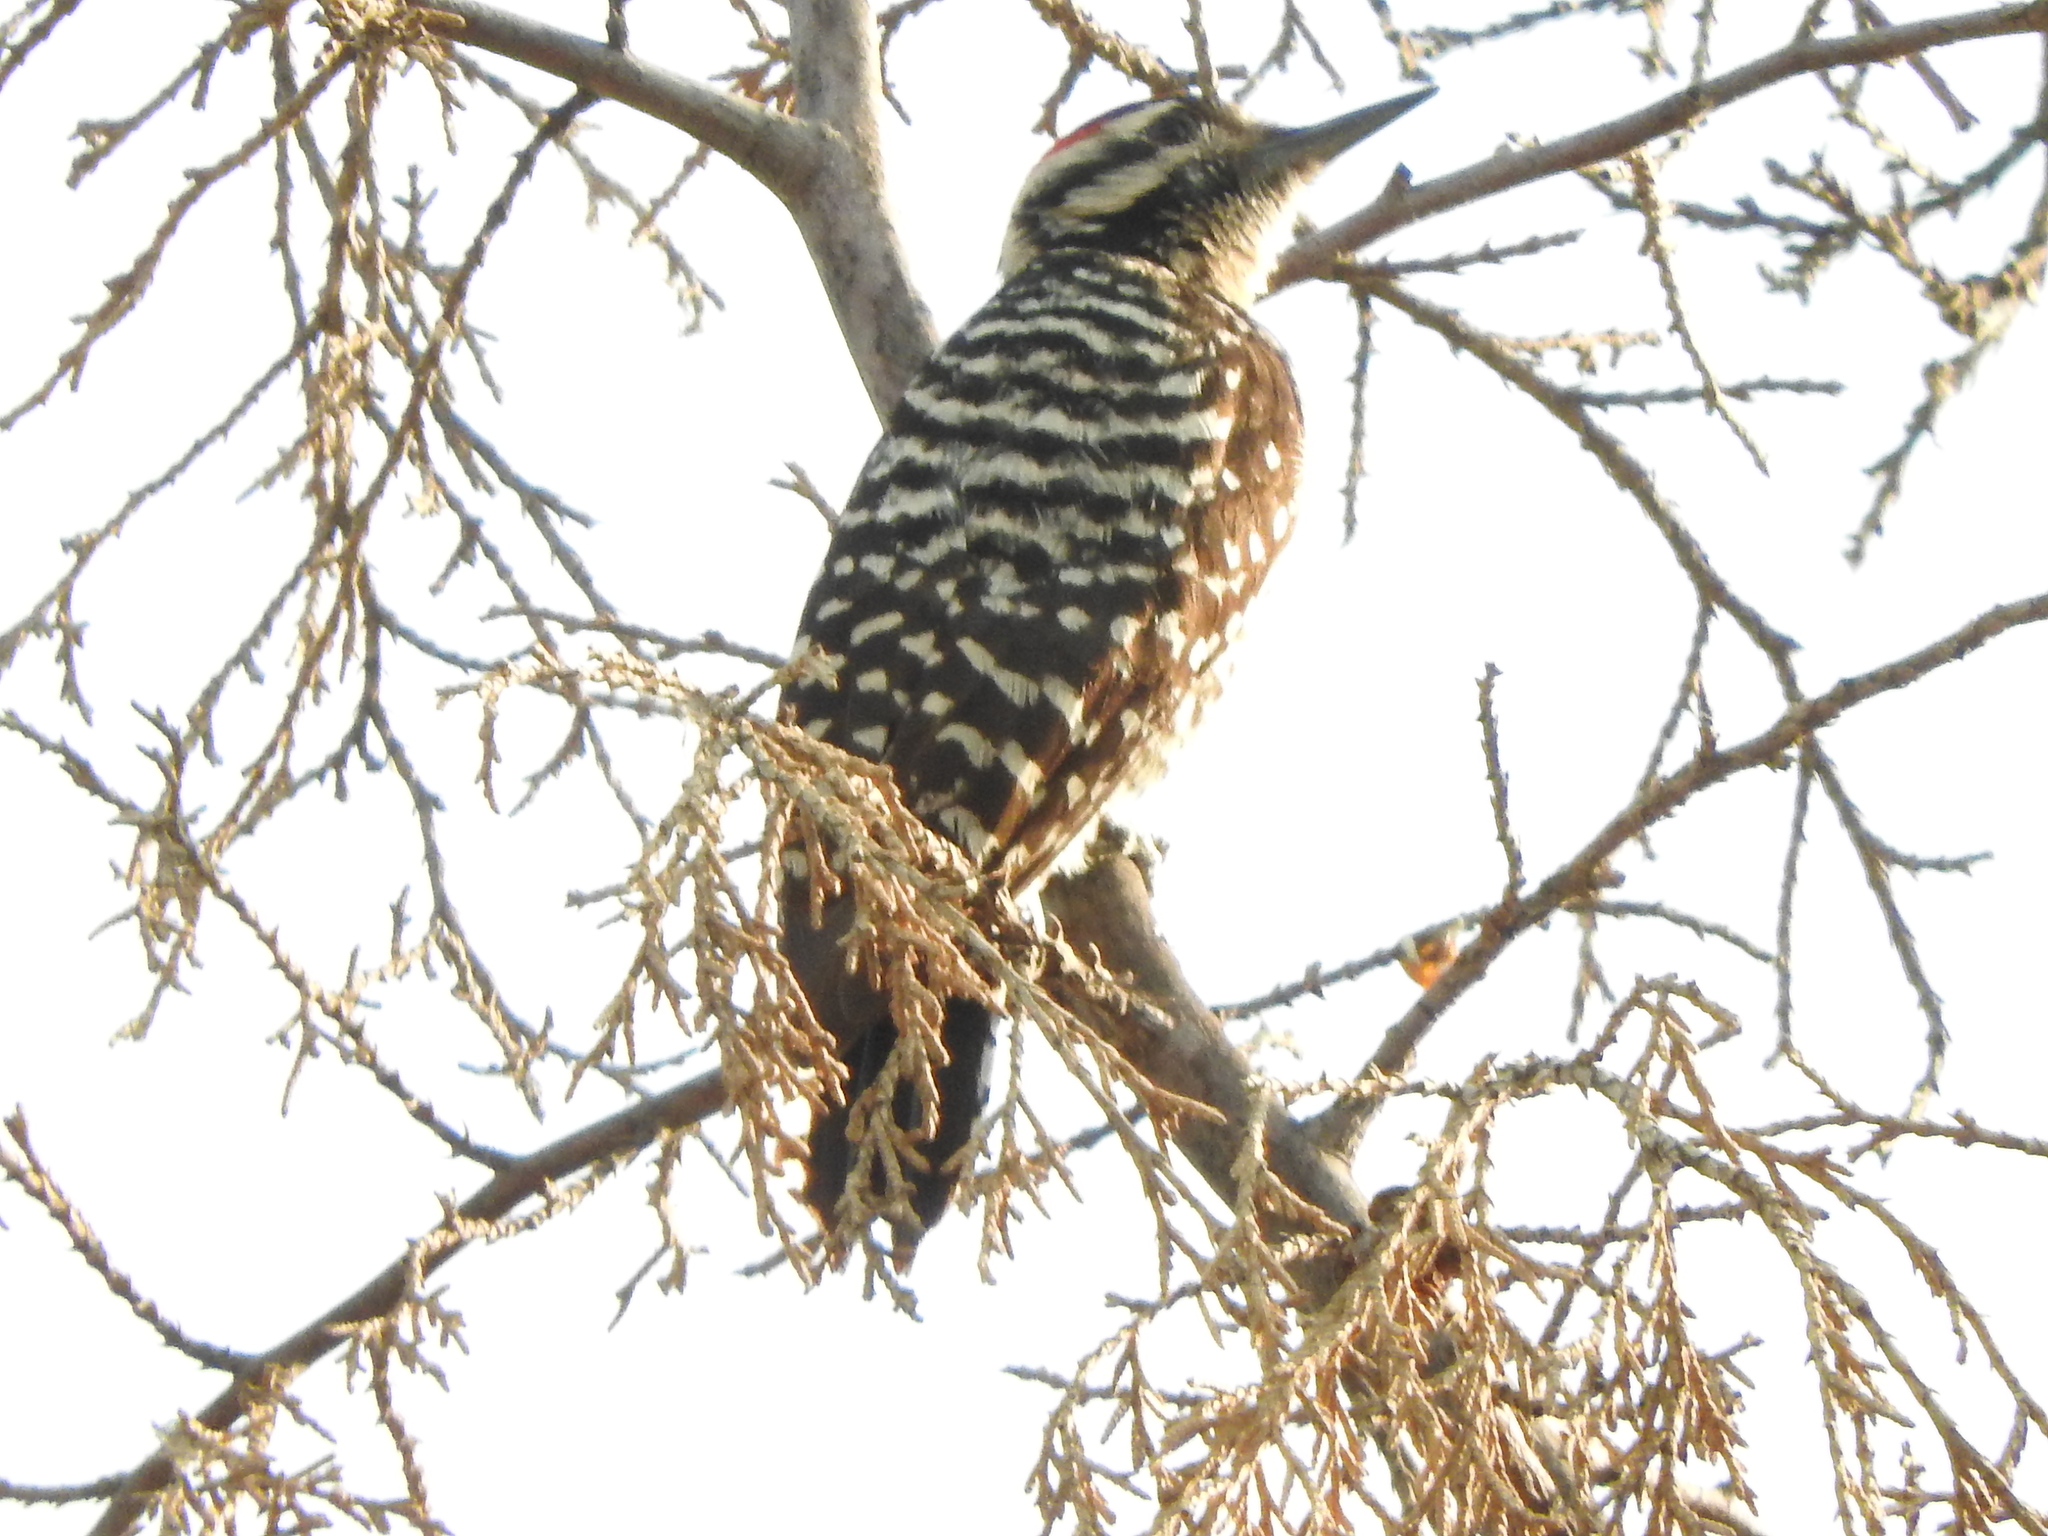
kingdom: Animalia
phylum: Chordata
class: Aves
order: Piciformes
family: Picidae
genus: Dryobates
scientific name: Dryobates scalaris
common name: Ladder-backed woodpecker
